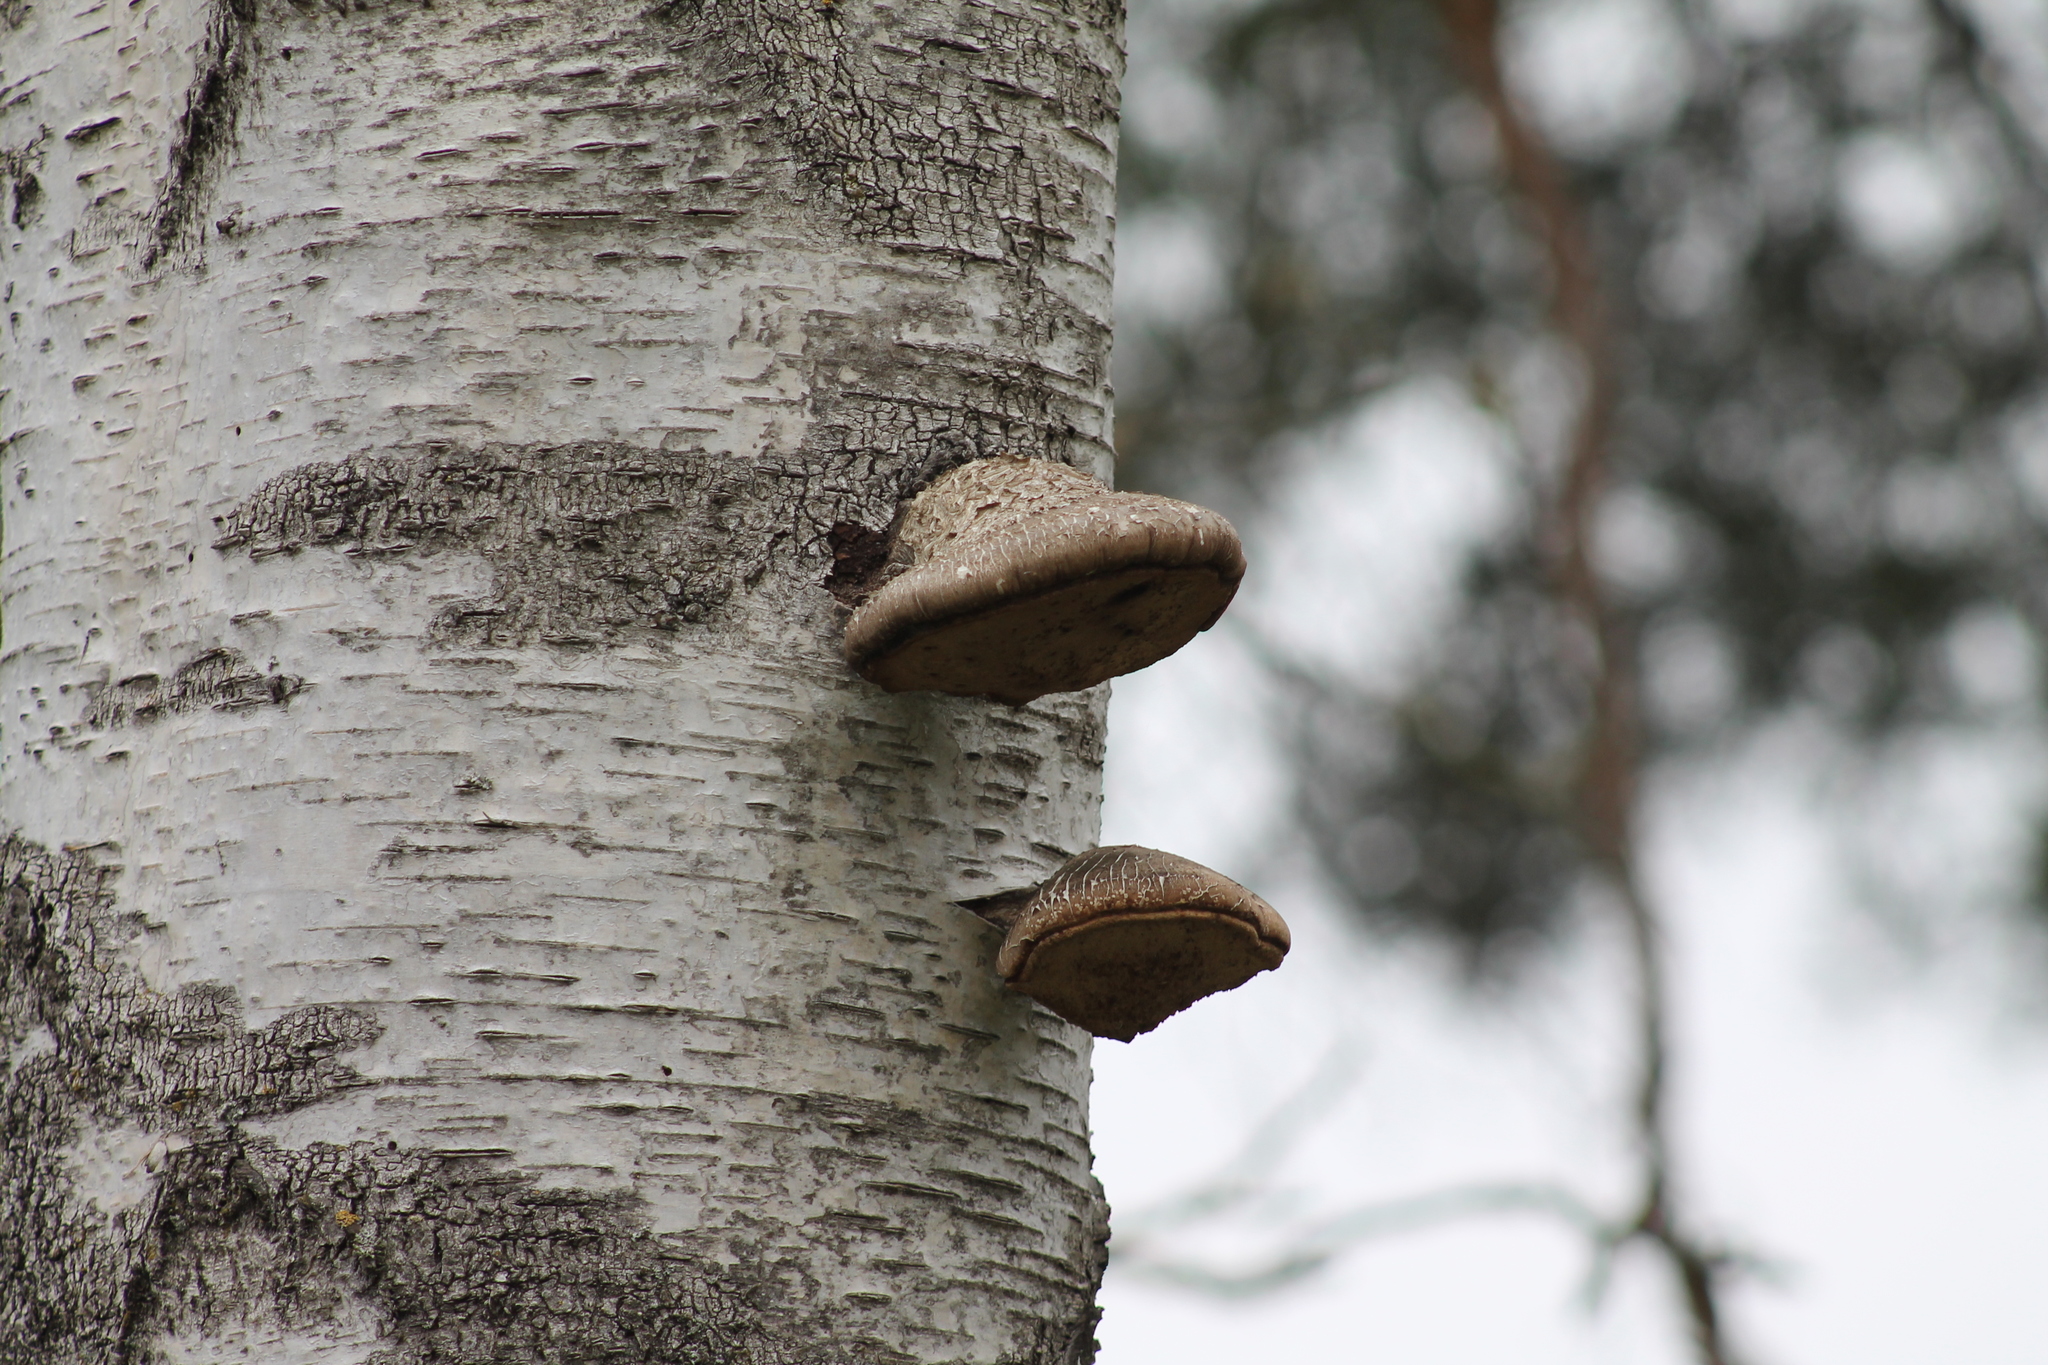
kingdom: Fungi
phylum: Basidiomycota
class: Agaricomycetes
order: Polyporales
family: Fomitopsidaceae
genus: Fomitopsis
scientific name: Fomitopsis betulina
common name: Birch polypore
